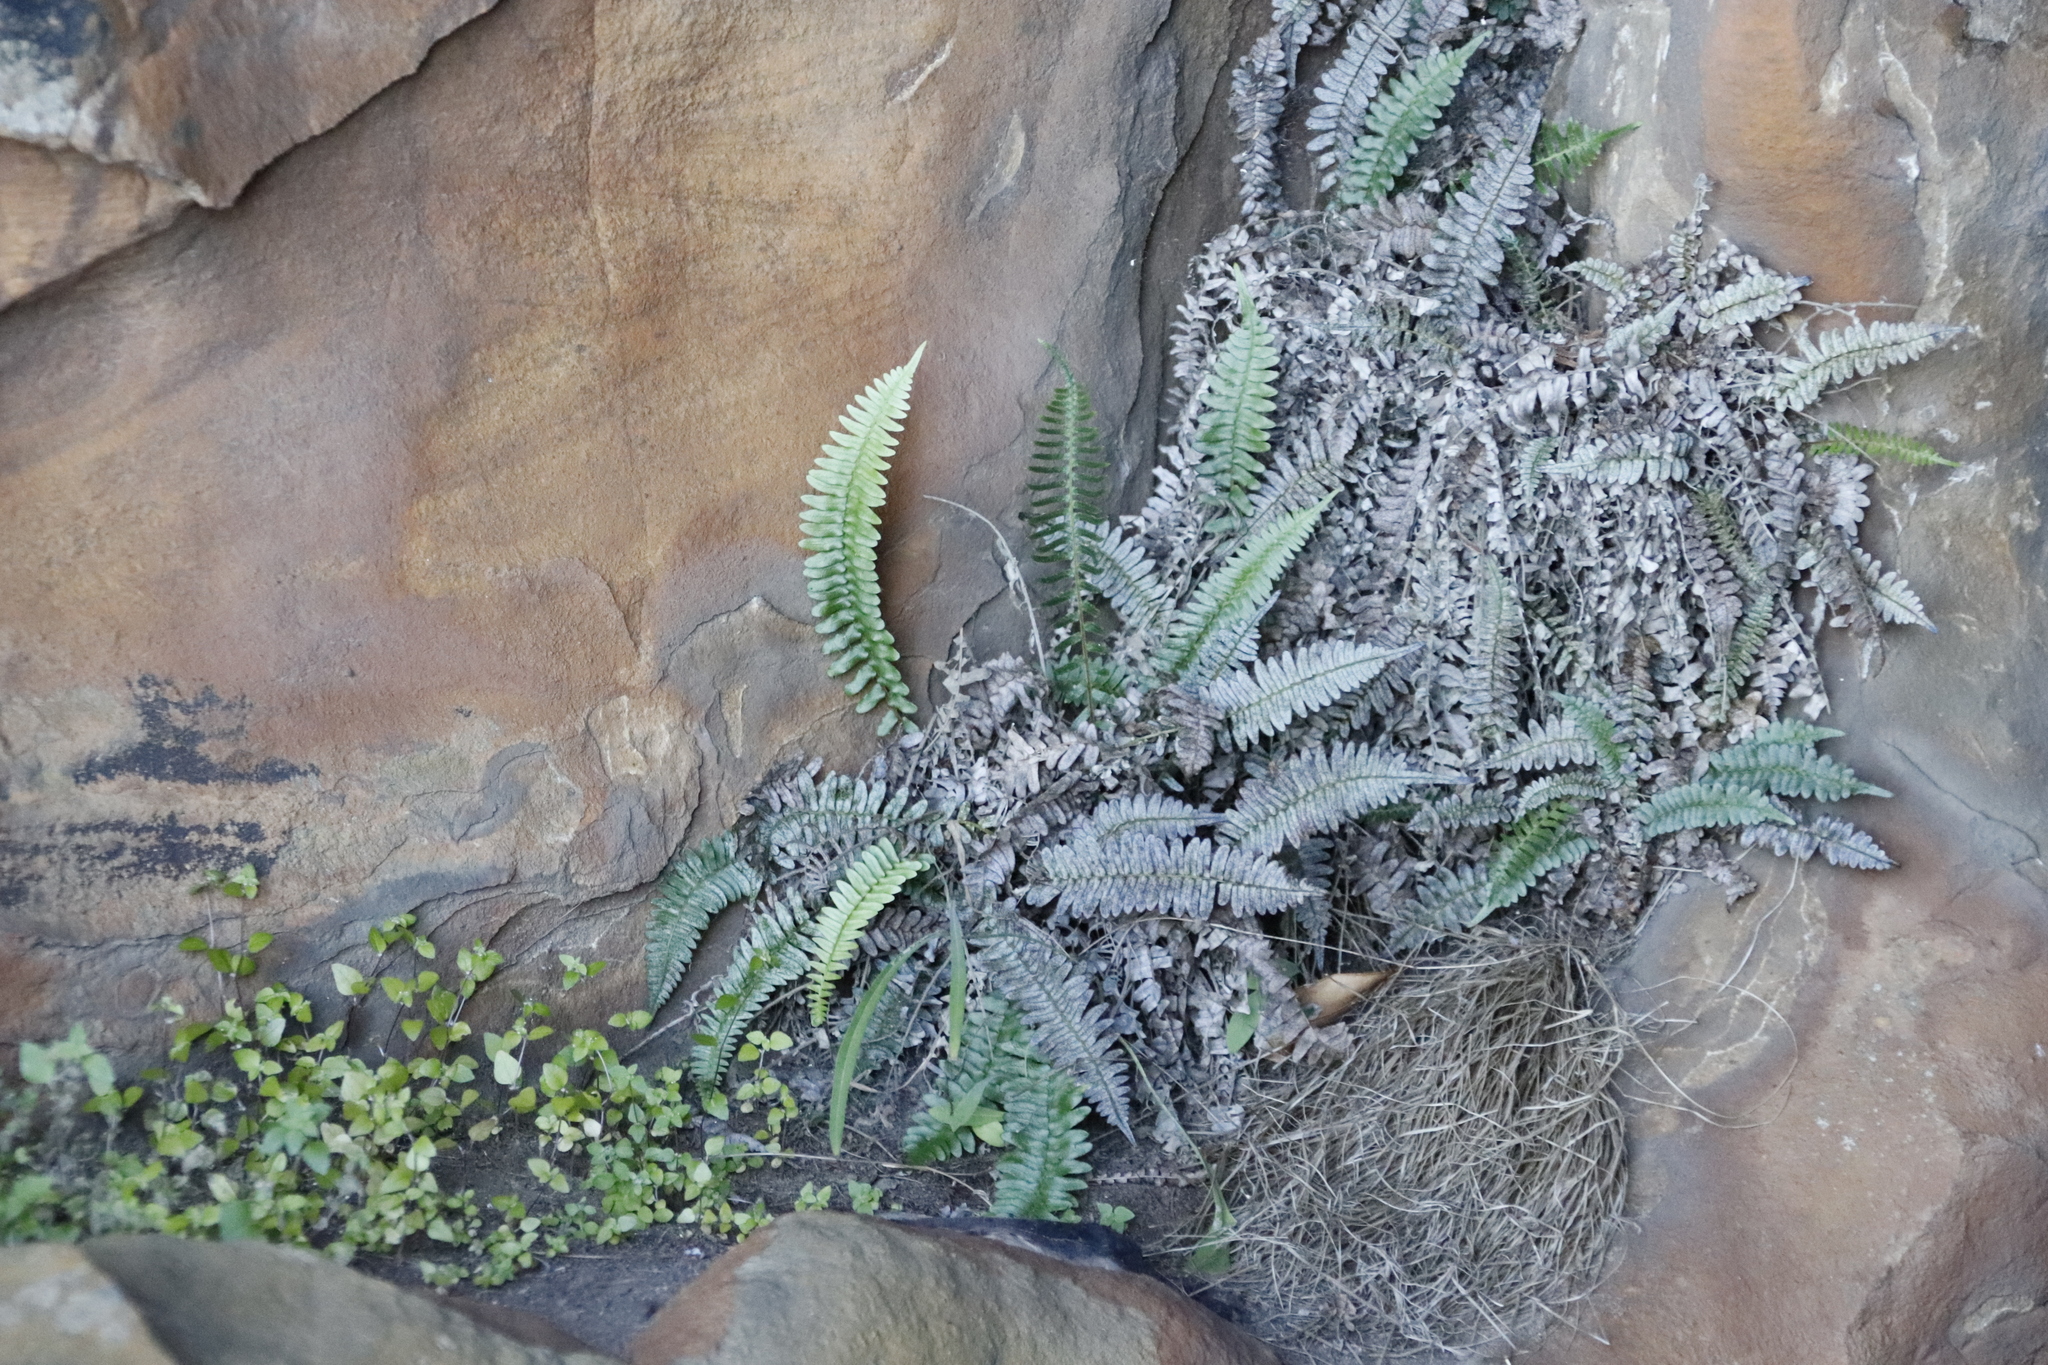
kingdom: Plantae
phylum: Tracheophyta
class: Polypodiopsida
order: Polypodiales
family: Blechnaceae
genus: Blechnum
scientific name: Blechnum australe
